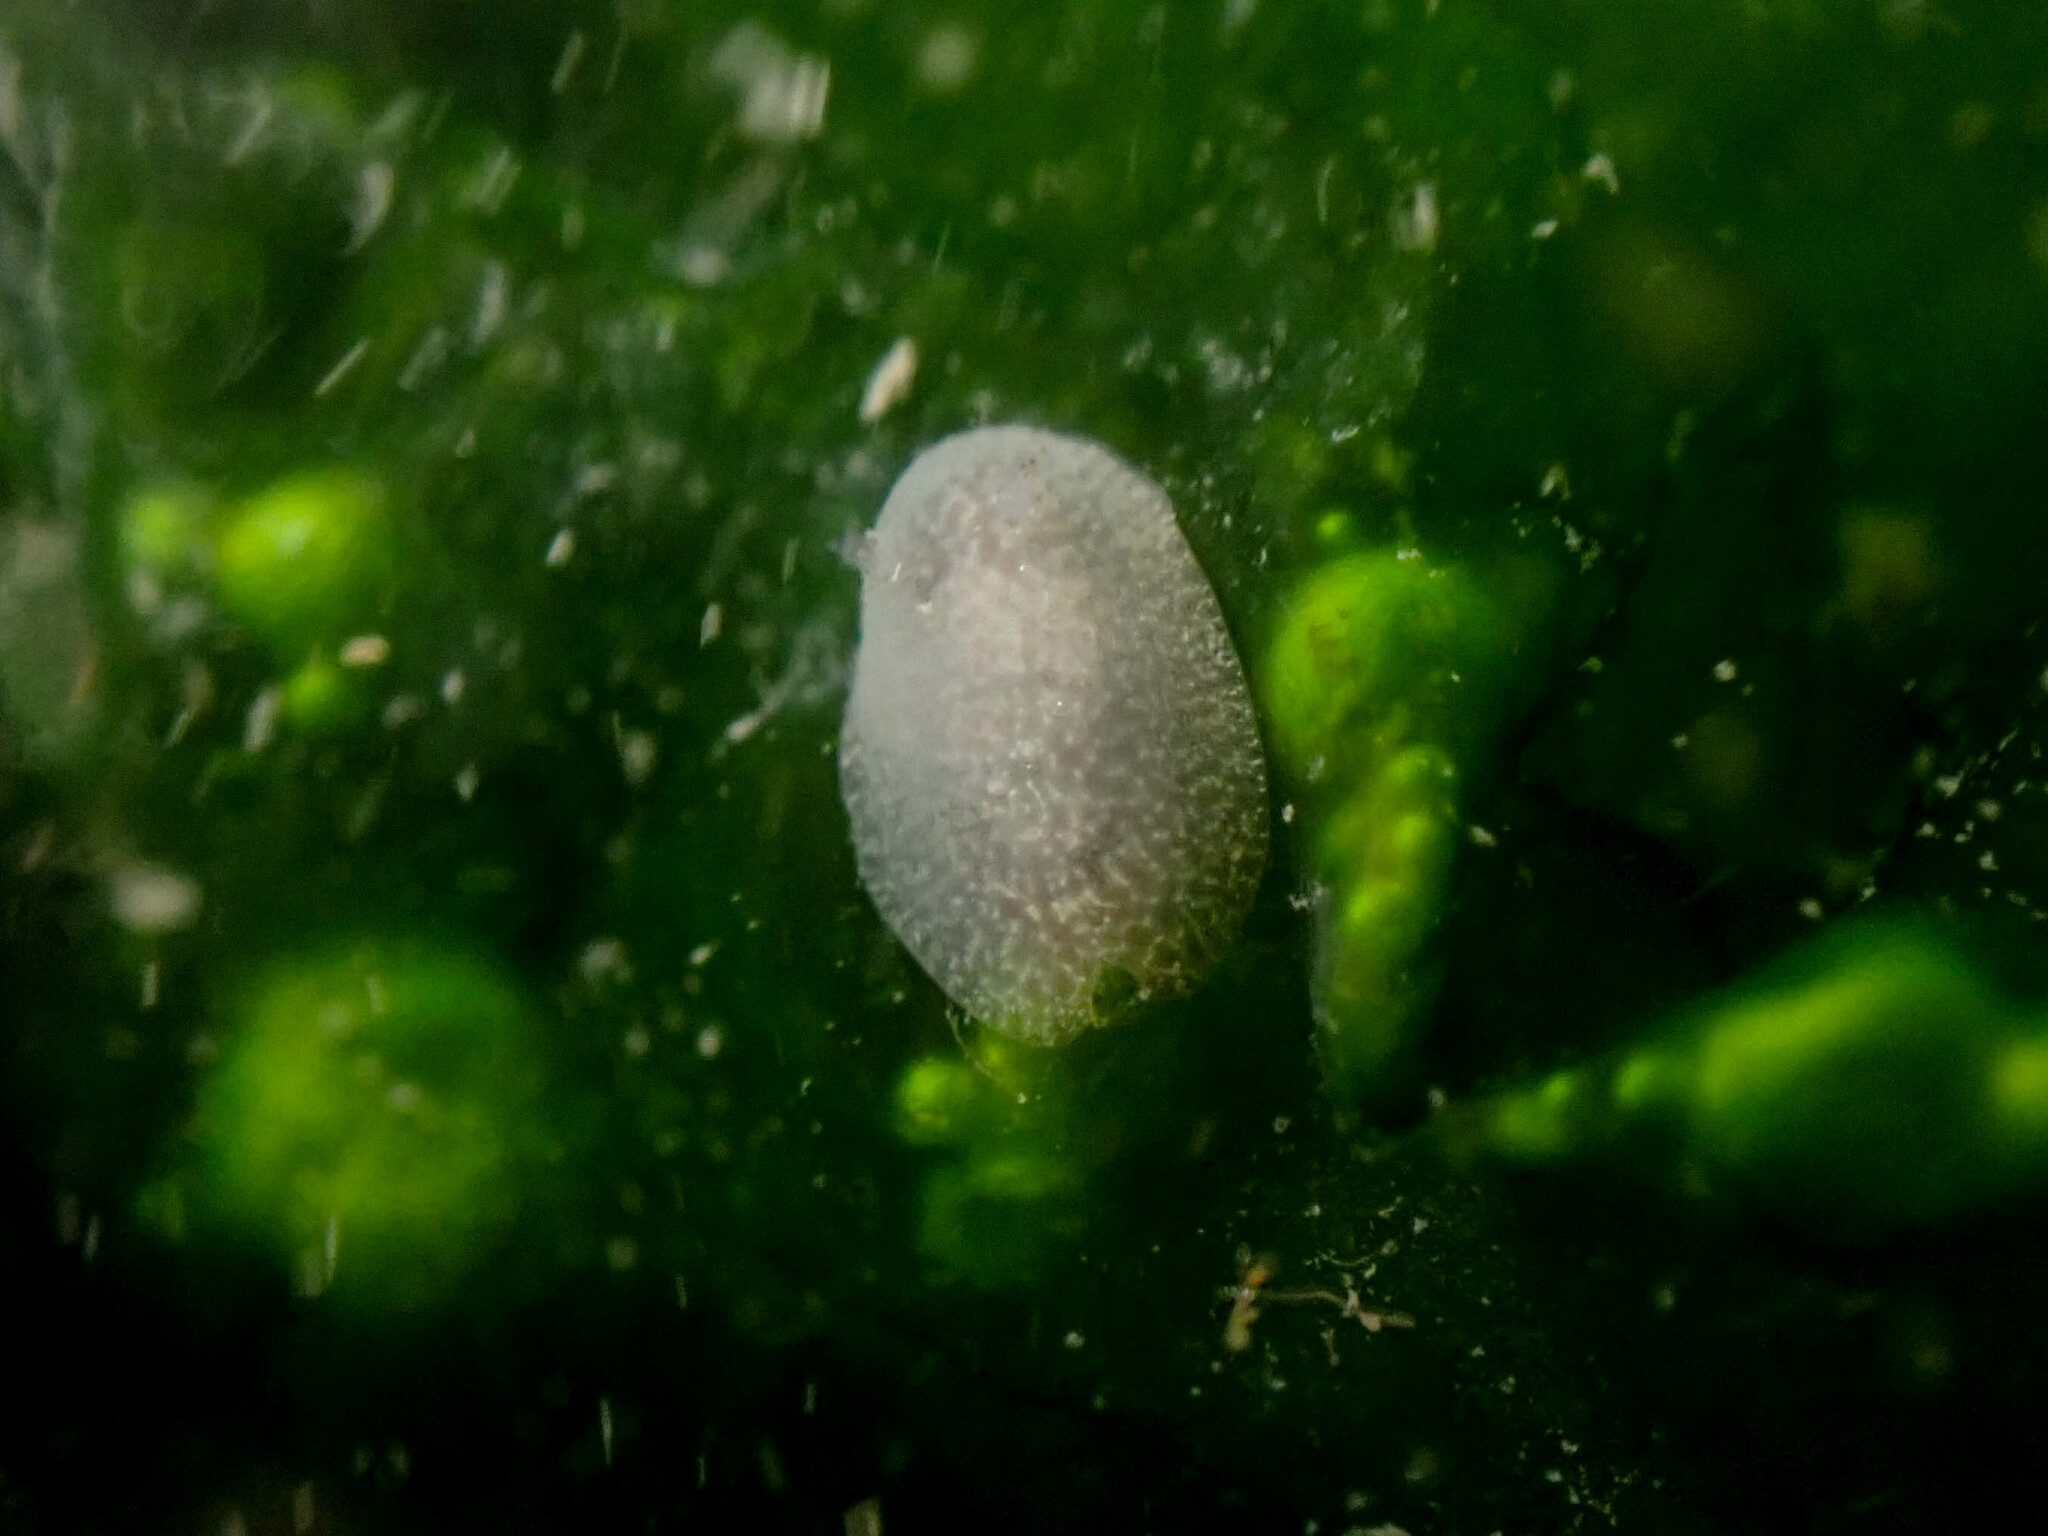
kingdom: Animalia
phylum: Mollusca
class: Gastropoda
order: Nudibranchia
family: Corambidae
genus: Corambe
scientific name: Corambe pacifica
